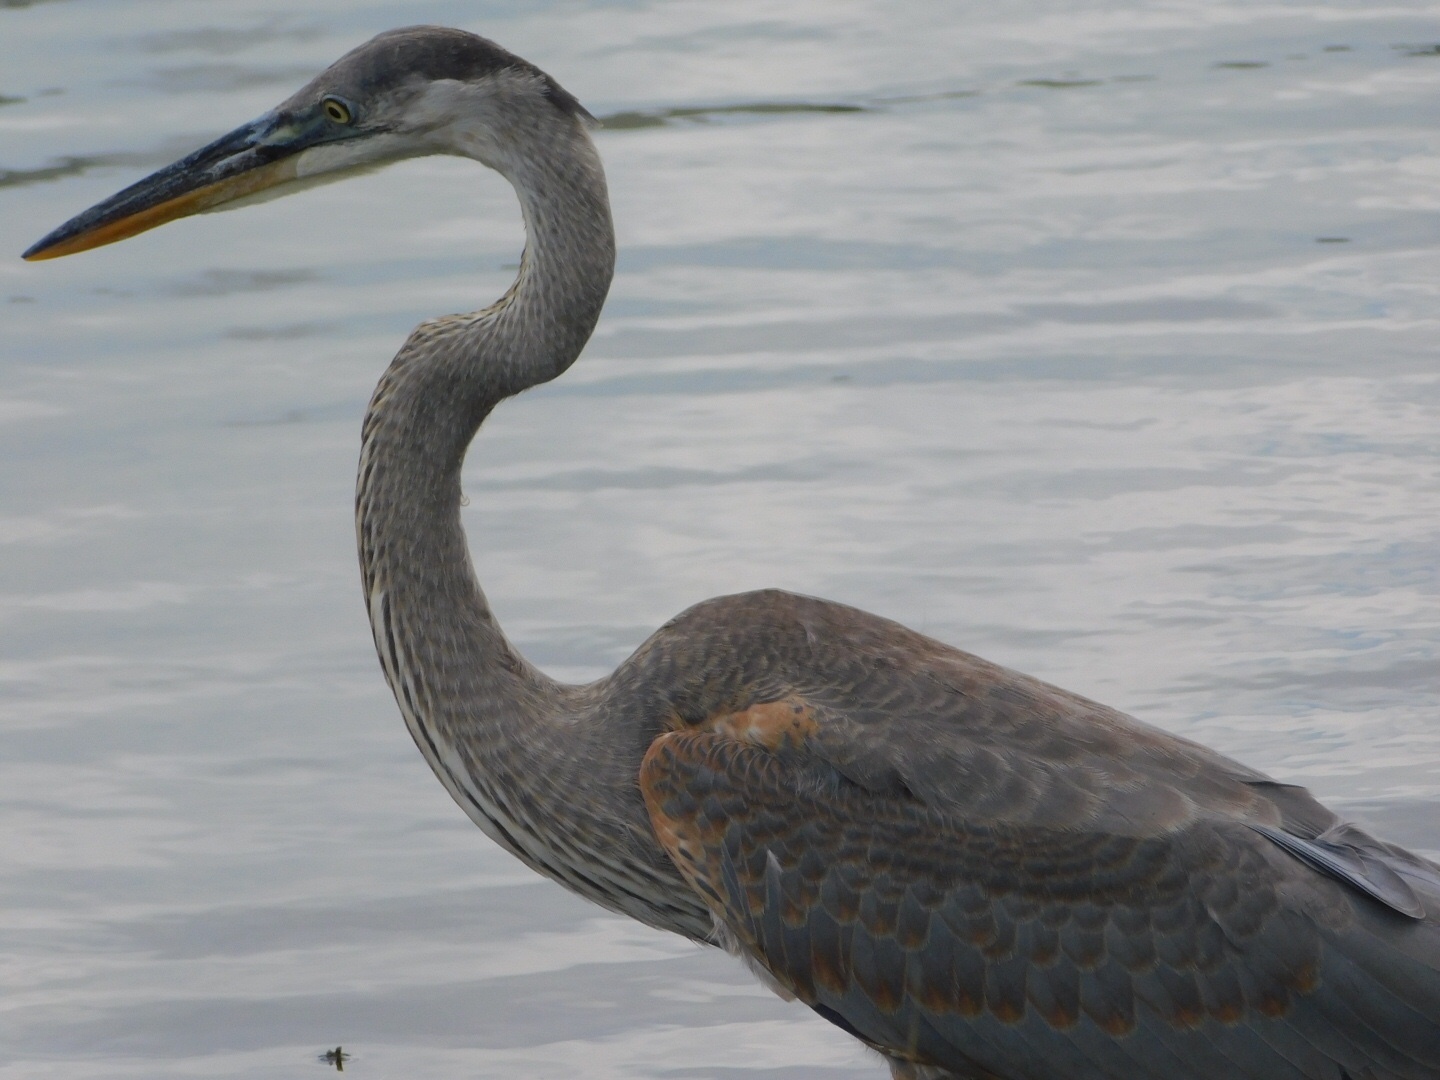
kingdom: Animalia
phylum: Chordata
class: Aves
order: Pelecaniformes
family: Ardeidae
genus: Ardea
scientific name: Ardea herodias
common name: Great blue heron
